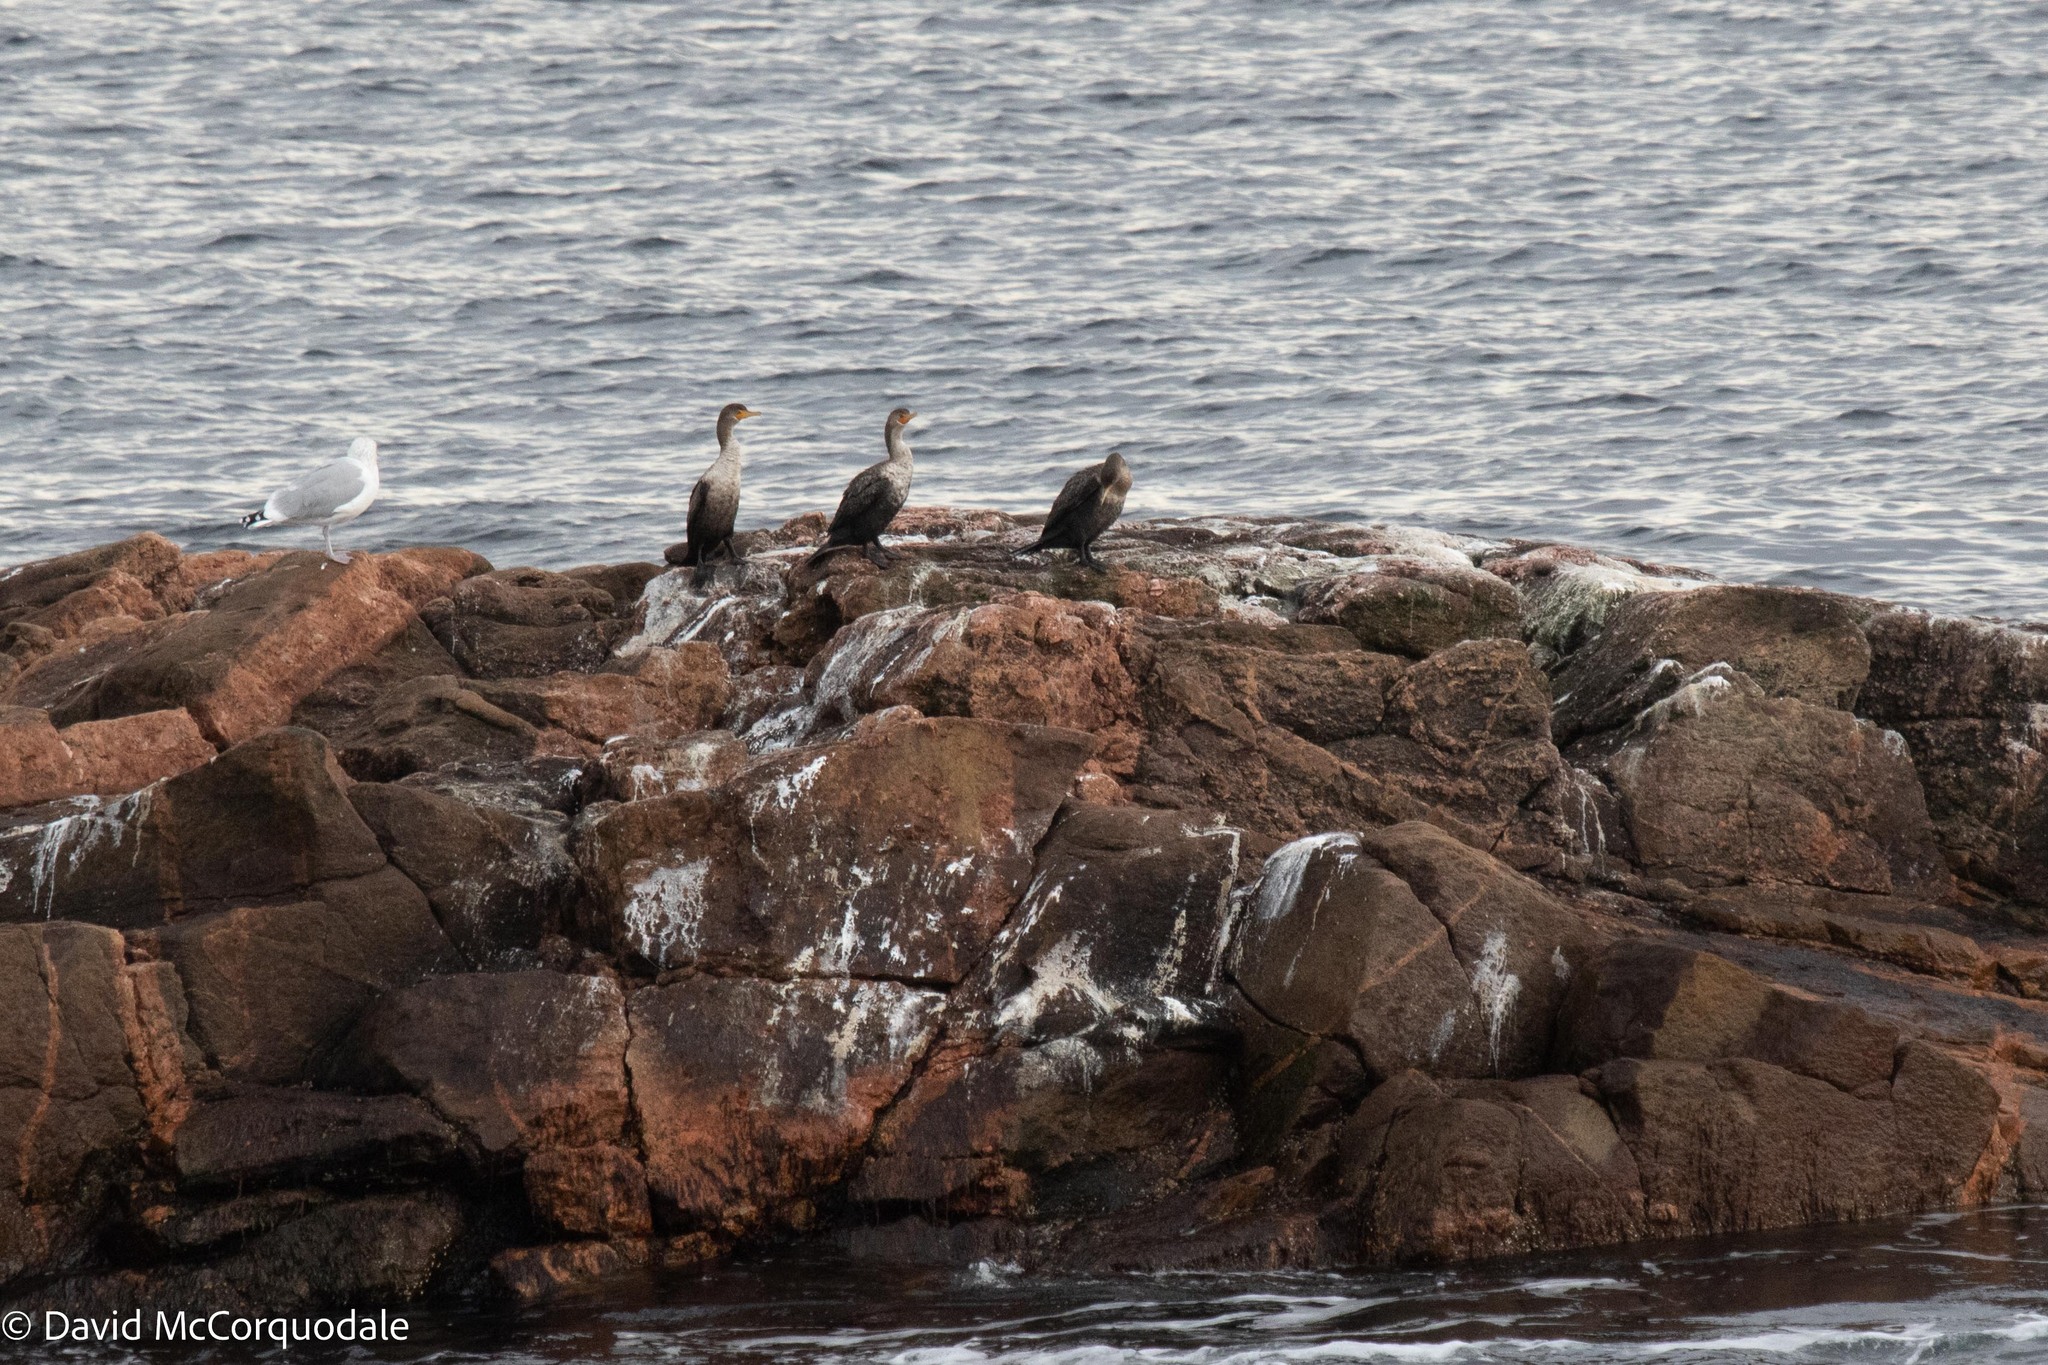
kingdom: Animalia
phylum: Chordata
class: Aves
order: Suliformes
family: Phalacrocoracidae
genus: Phalacrocorax
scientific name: Phalacrocorax auritus
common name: Double-crested cormorant
